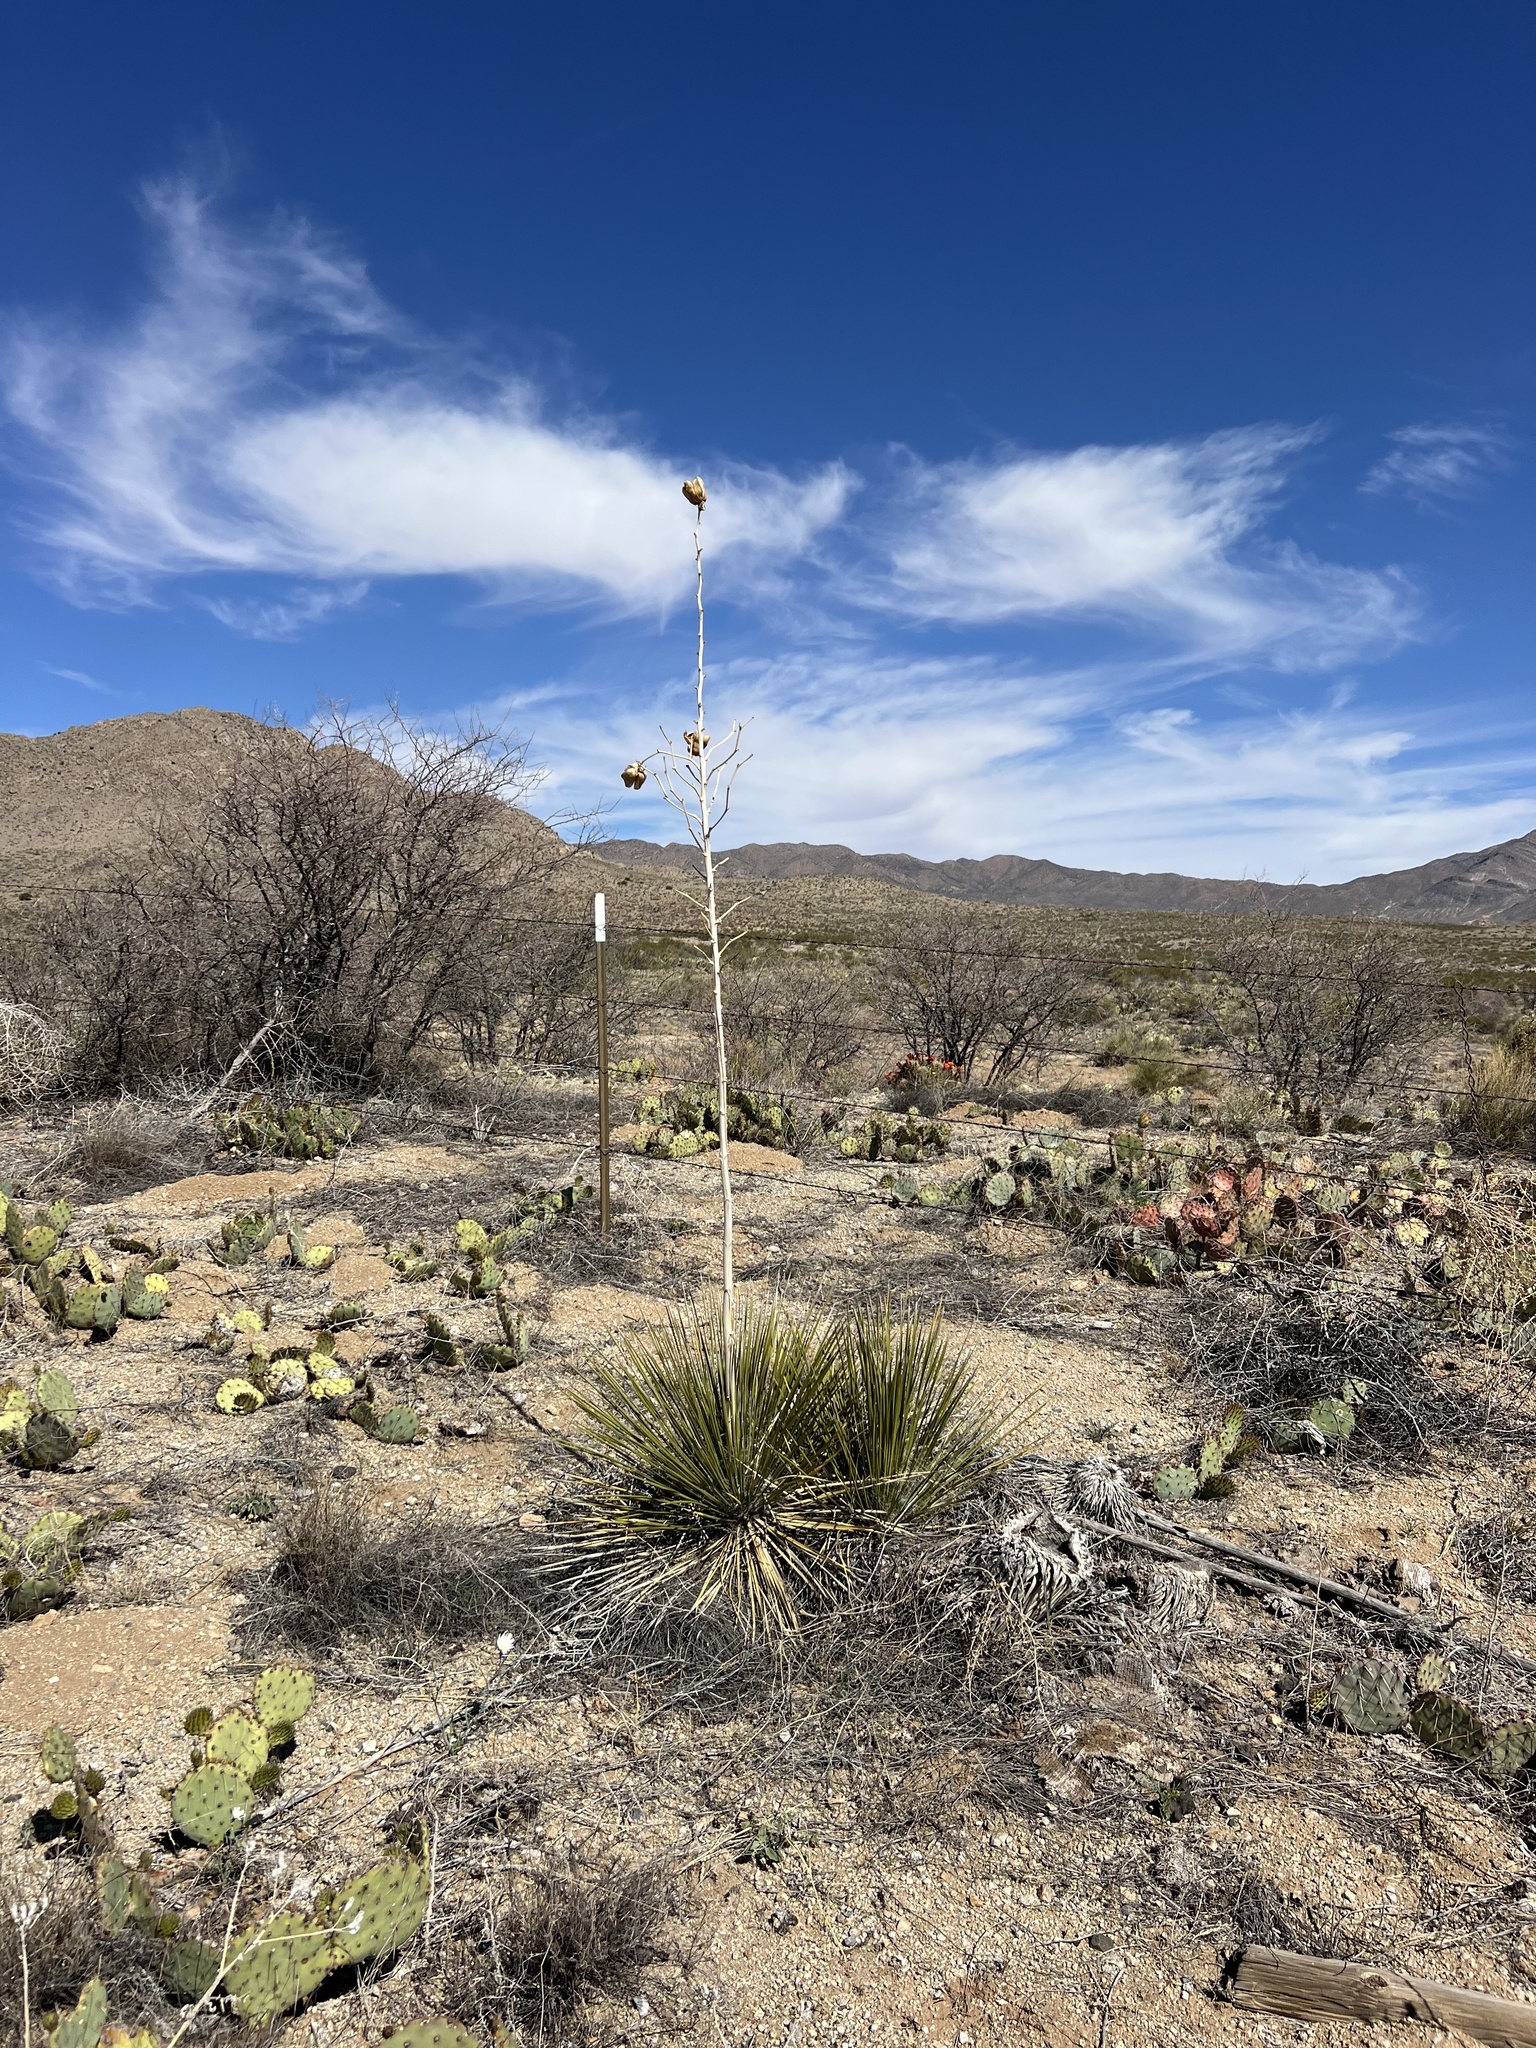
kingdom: Plantae
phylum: Tracheophyta
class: Liliopsida
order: Asparagales
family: Asparagaceae
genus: Yucca
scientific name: Yucca elata
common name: Palmella
